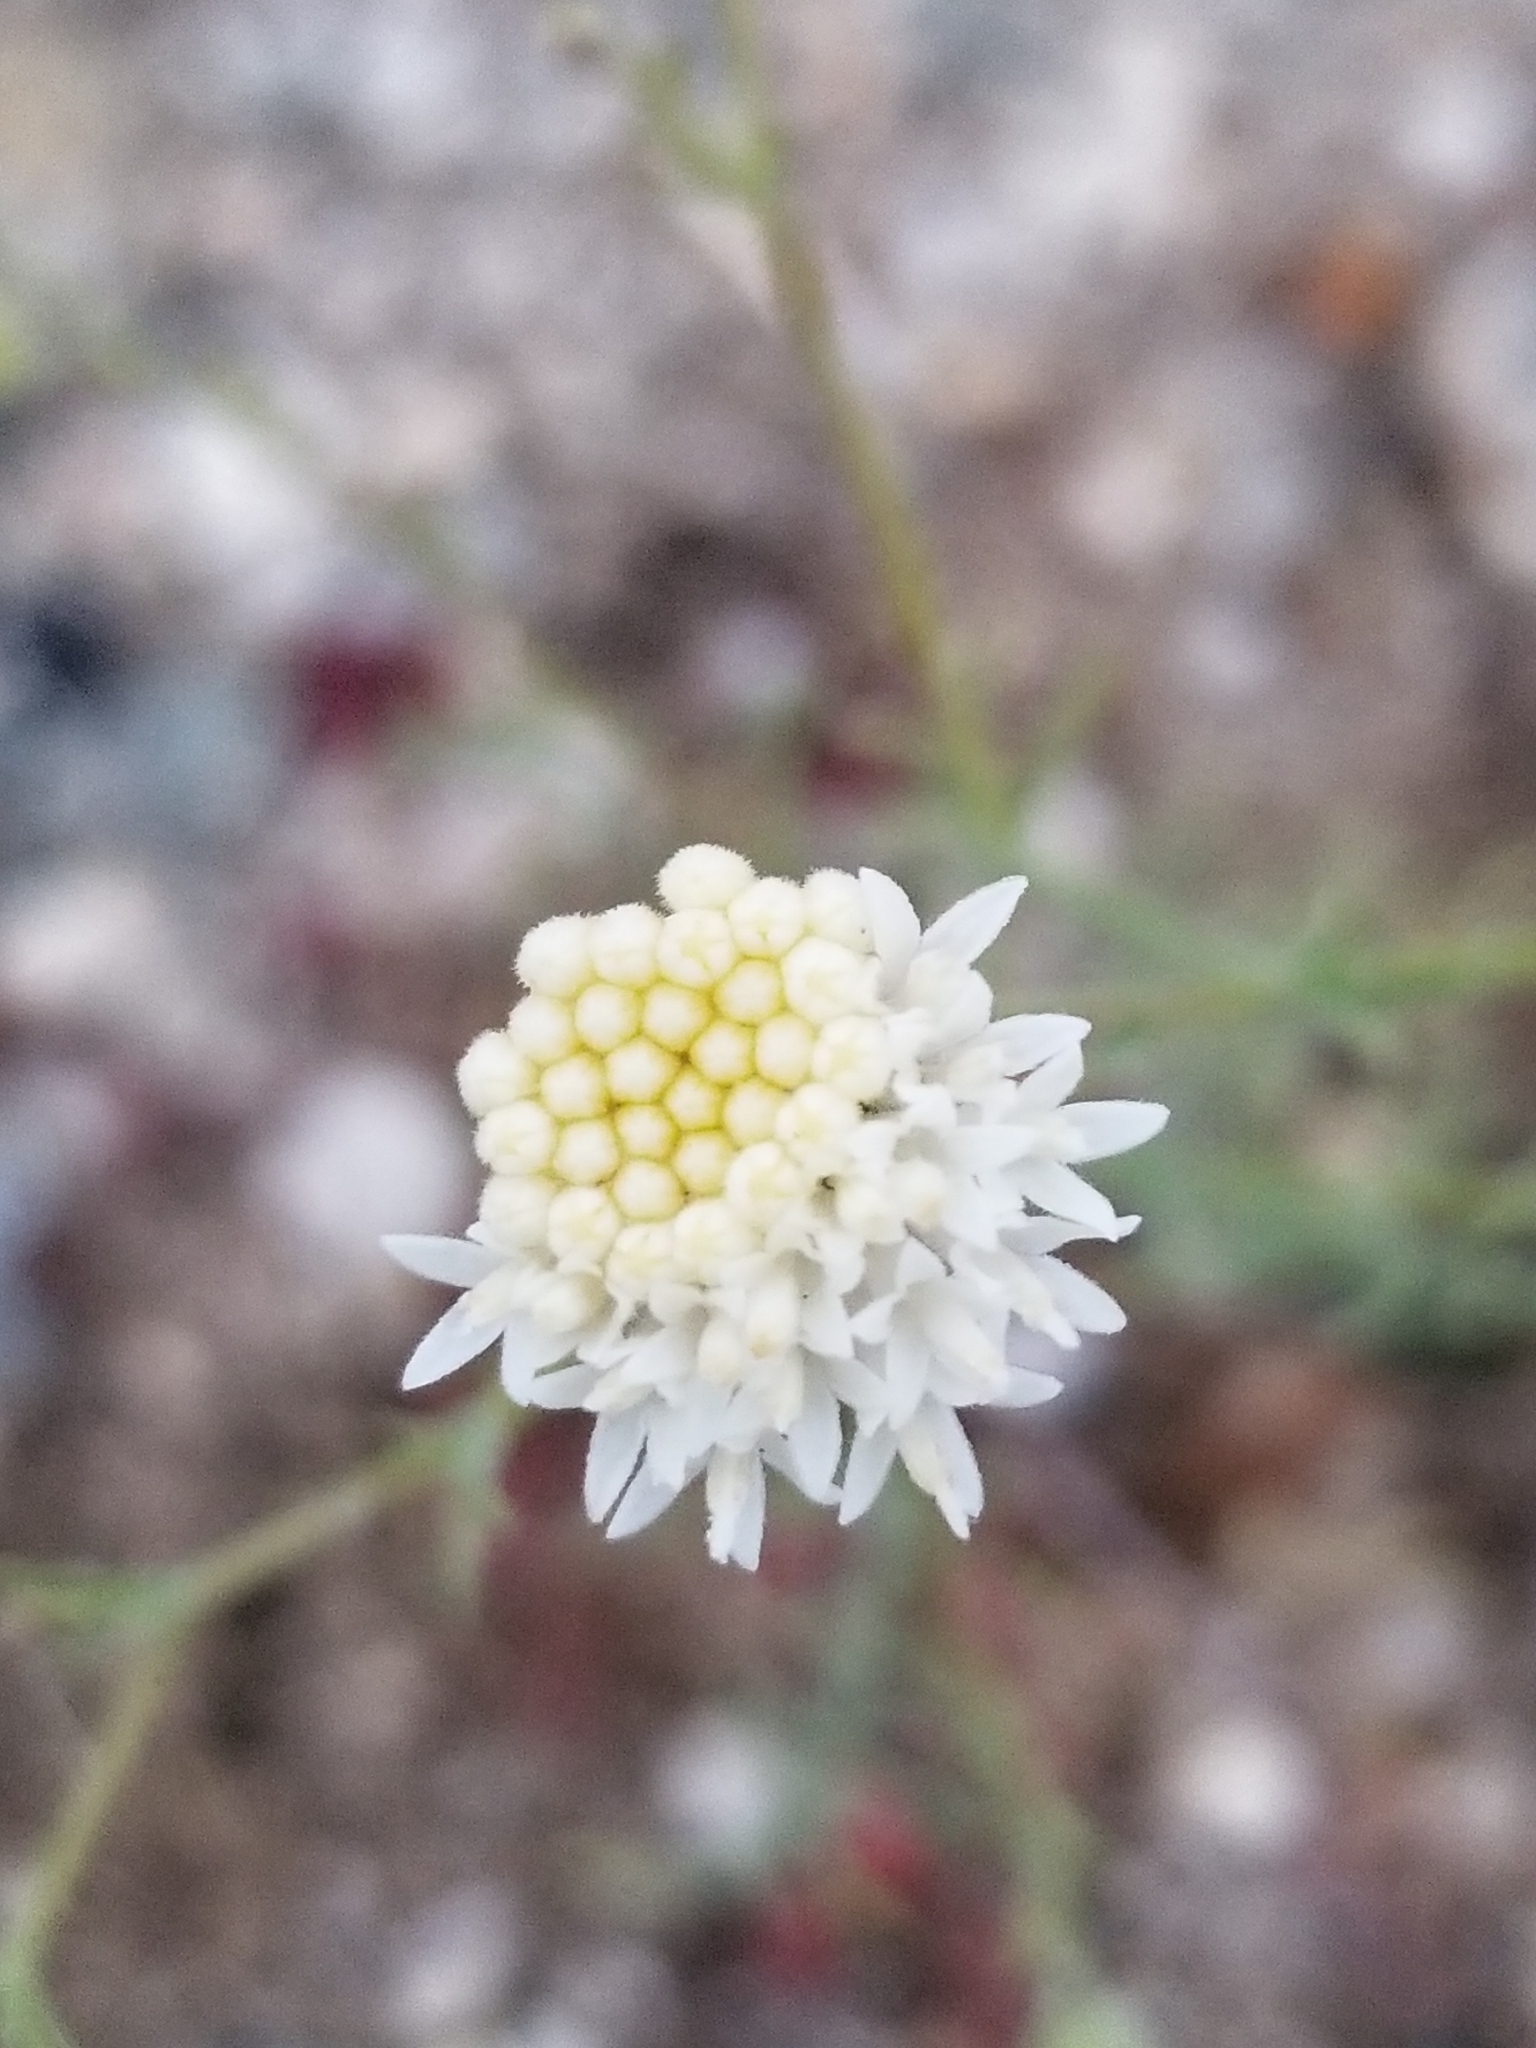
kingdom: Plantae
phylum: Tracheophyta
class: Magnoliopsida
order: Asterales
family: Asteraceae
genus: Chaenactis
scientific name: Chaenactis carphoclinia
